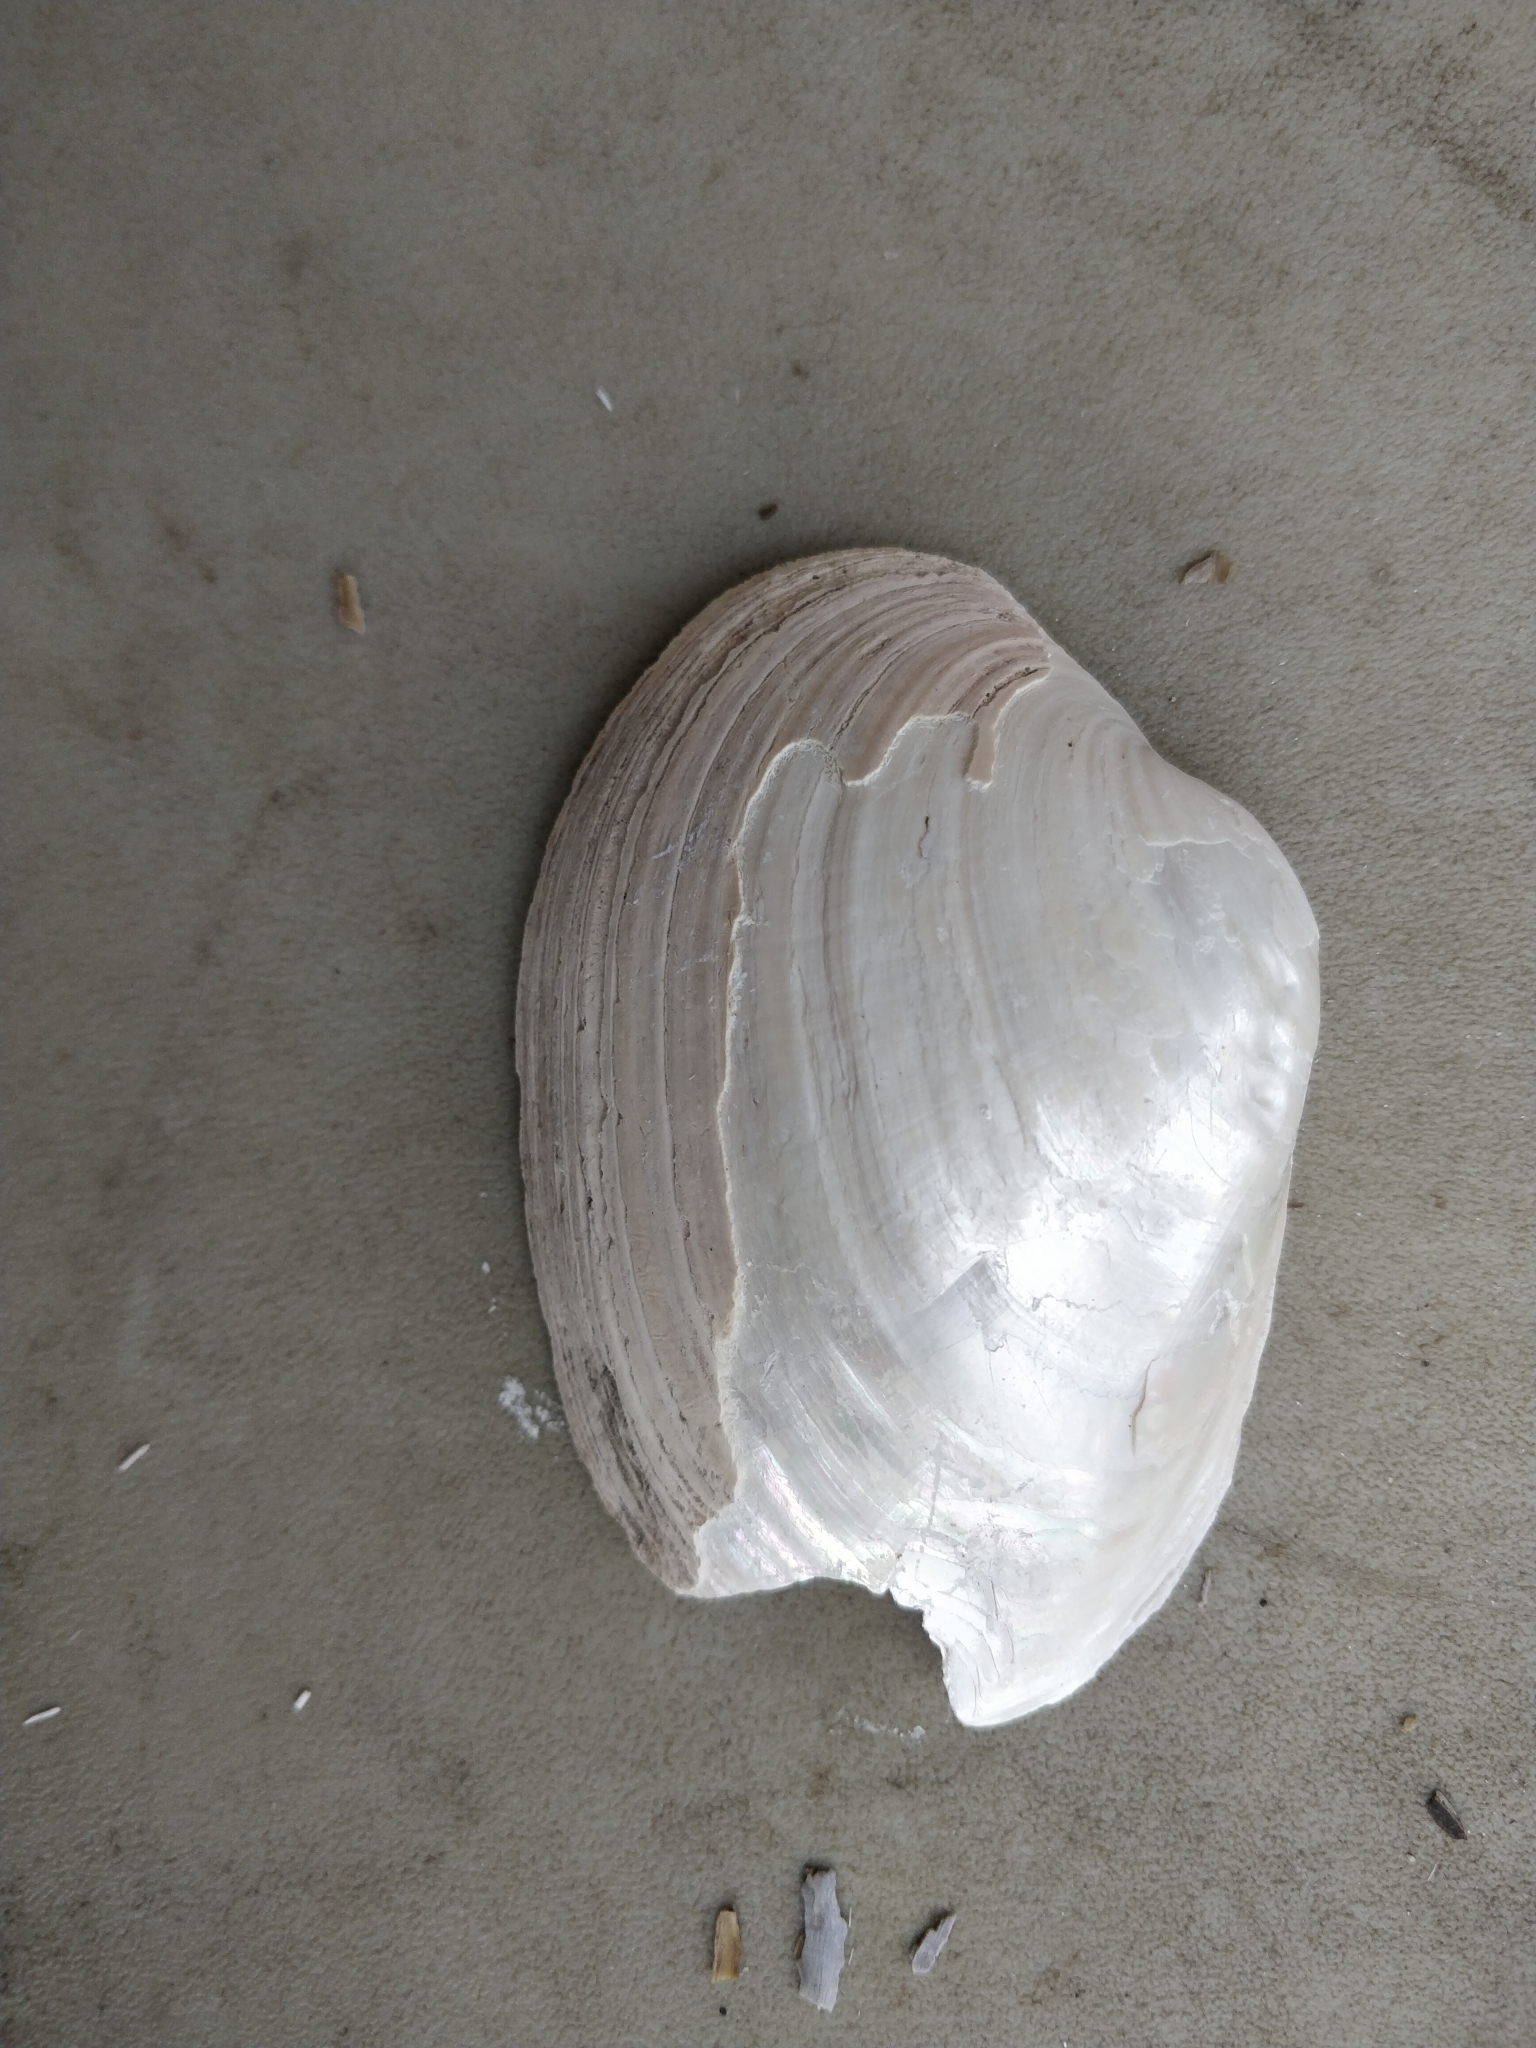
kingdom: Animalia
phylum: Mollusca
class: Bivalvia
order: Unionida
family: Unionidae
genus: Lampsilis
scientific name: Lampsilis cardium
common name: Plain pocketbook
